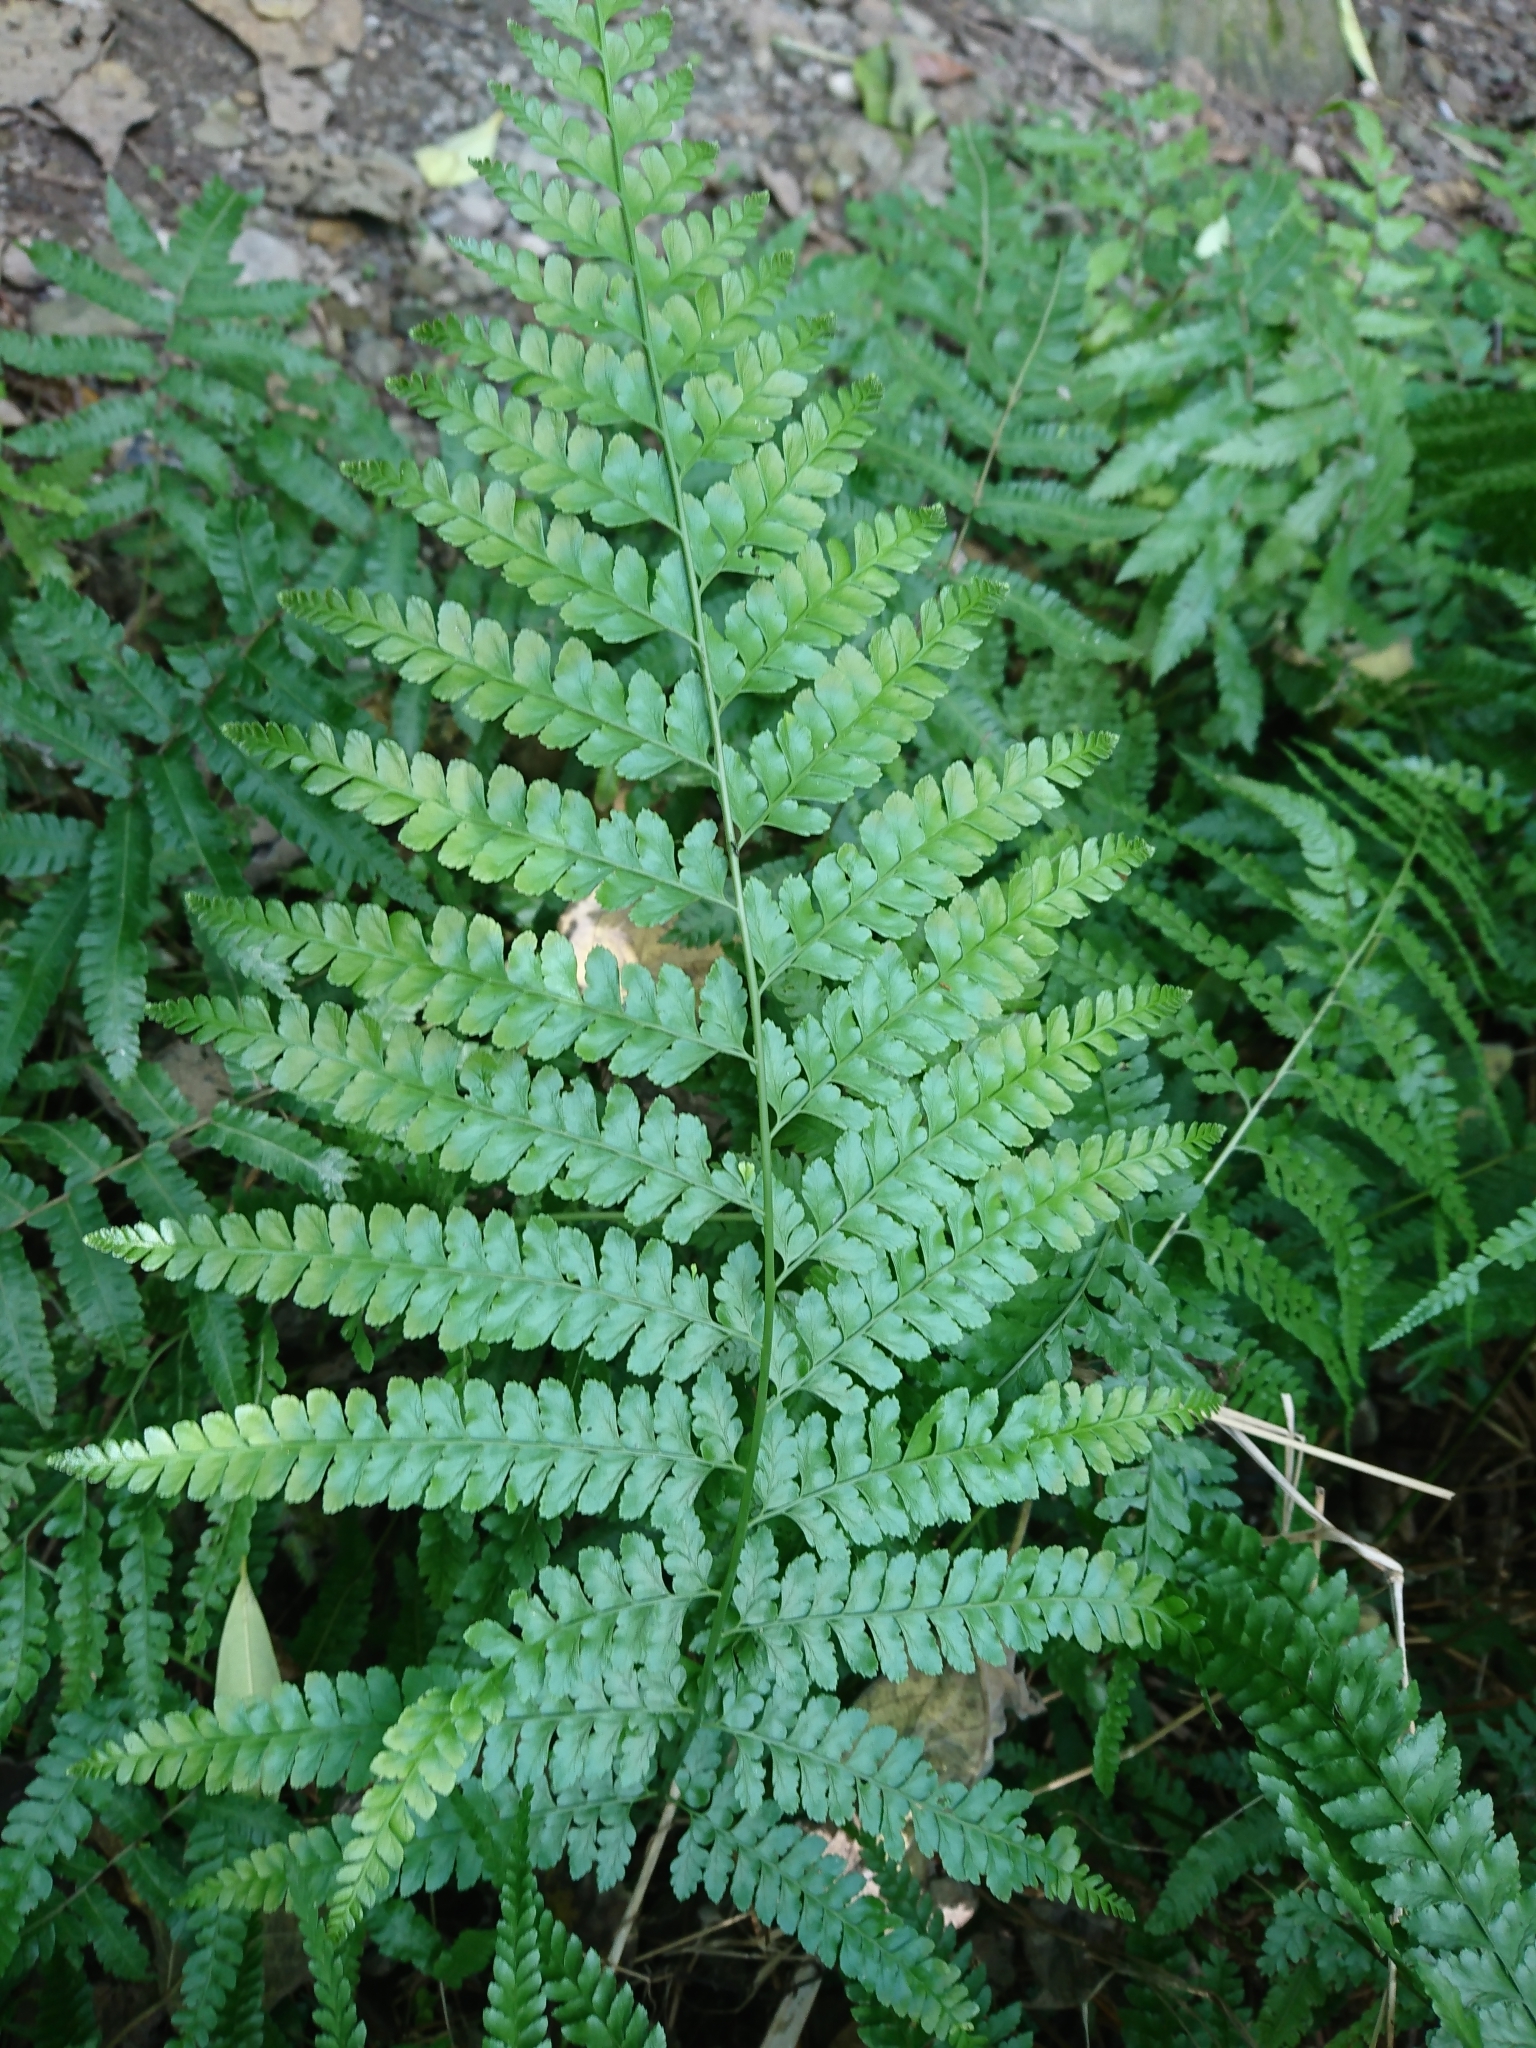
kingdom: Plantae
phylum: Tracheophyta
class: Polypodiopsida
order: Polypodiales
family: Dennstaedtiaceae
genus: Microlepia
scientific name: Microlepia strigosa
